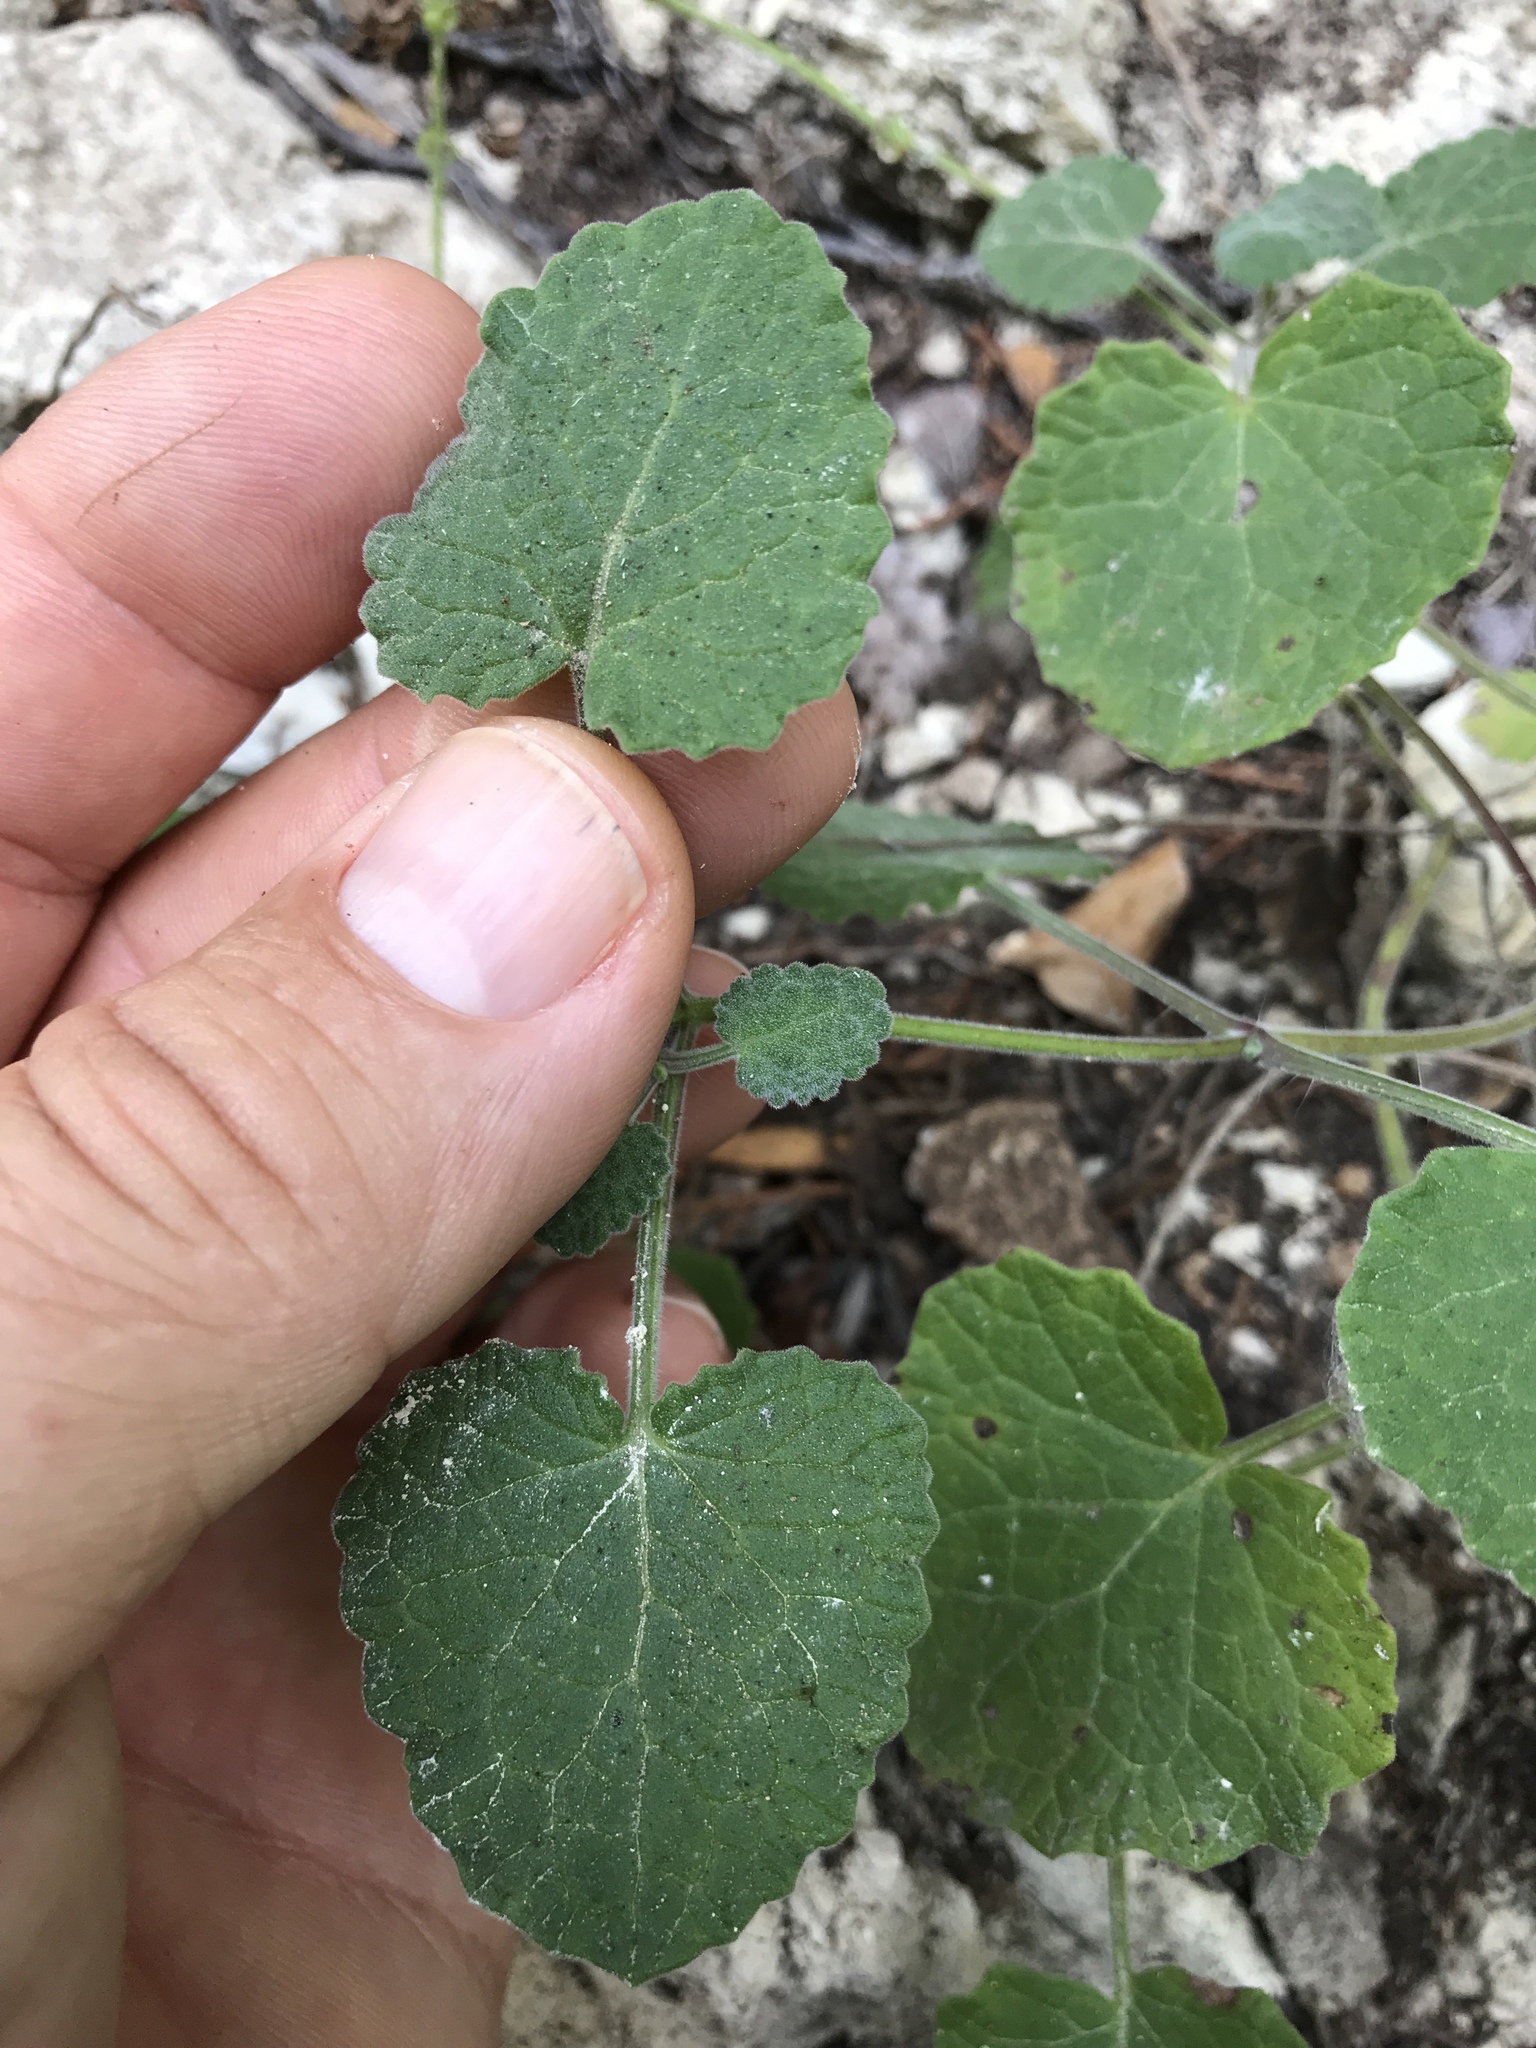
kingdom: Plantae
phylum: Tracheophyta
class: Magnoliopsida
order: Lamiales
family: Lamiaceae
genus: Salvia
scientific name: Salvia roemeriana
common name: Cedar sage
